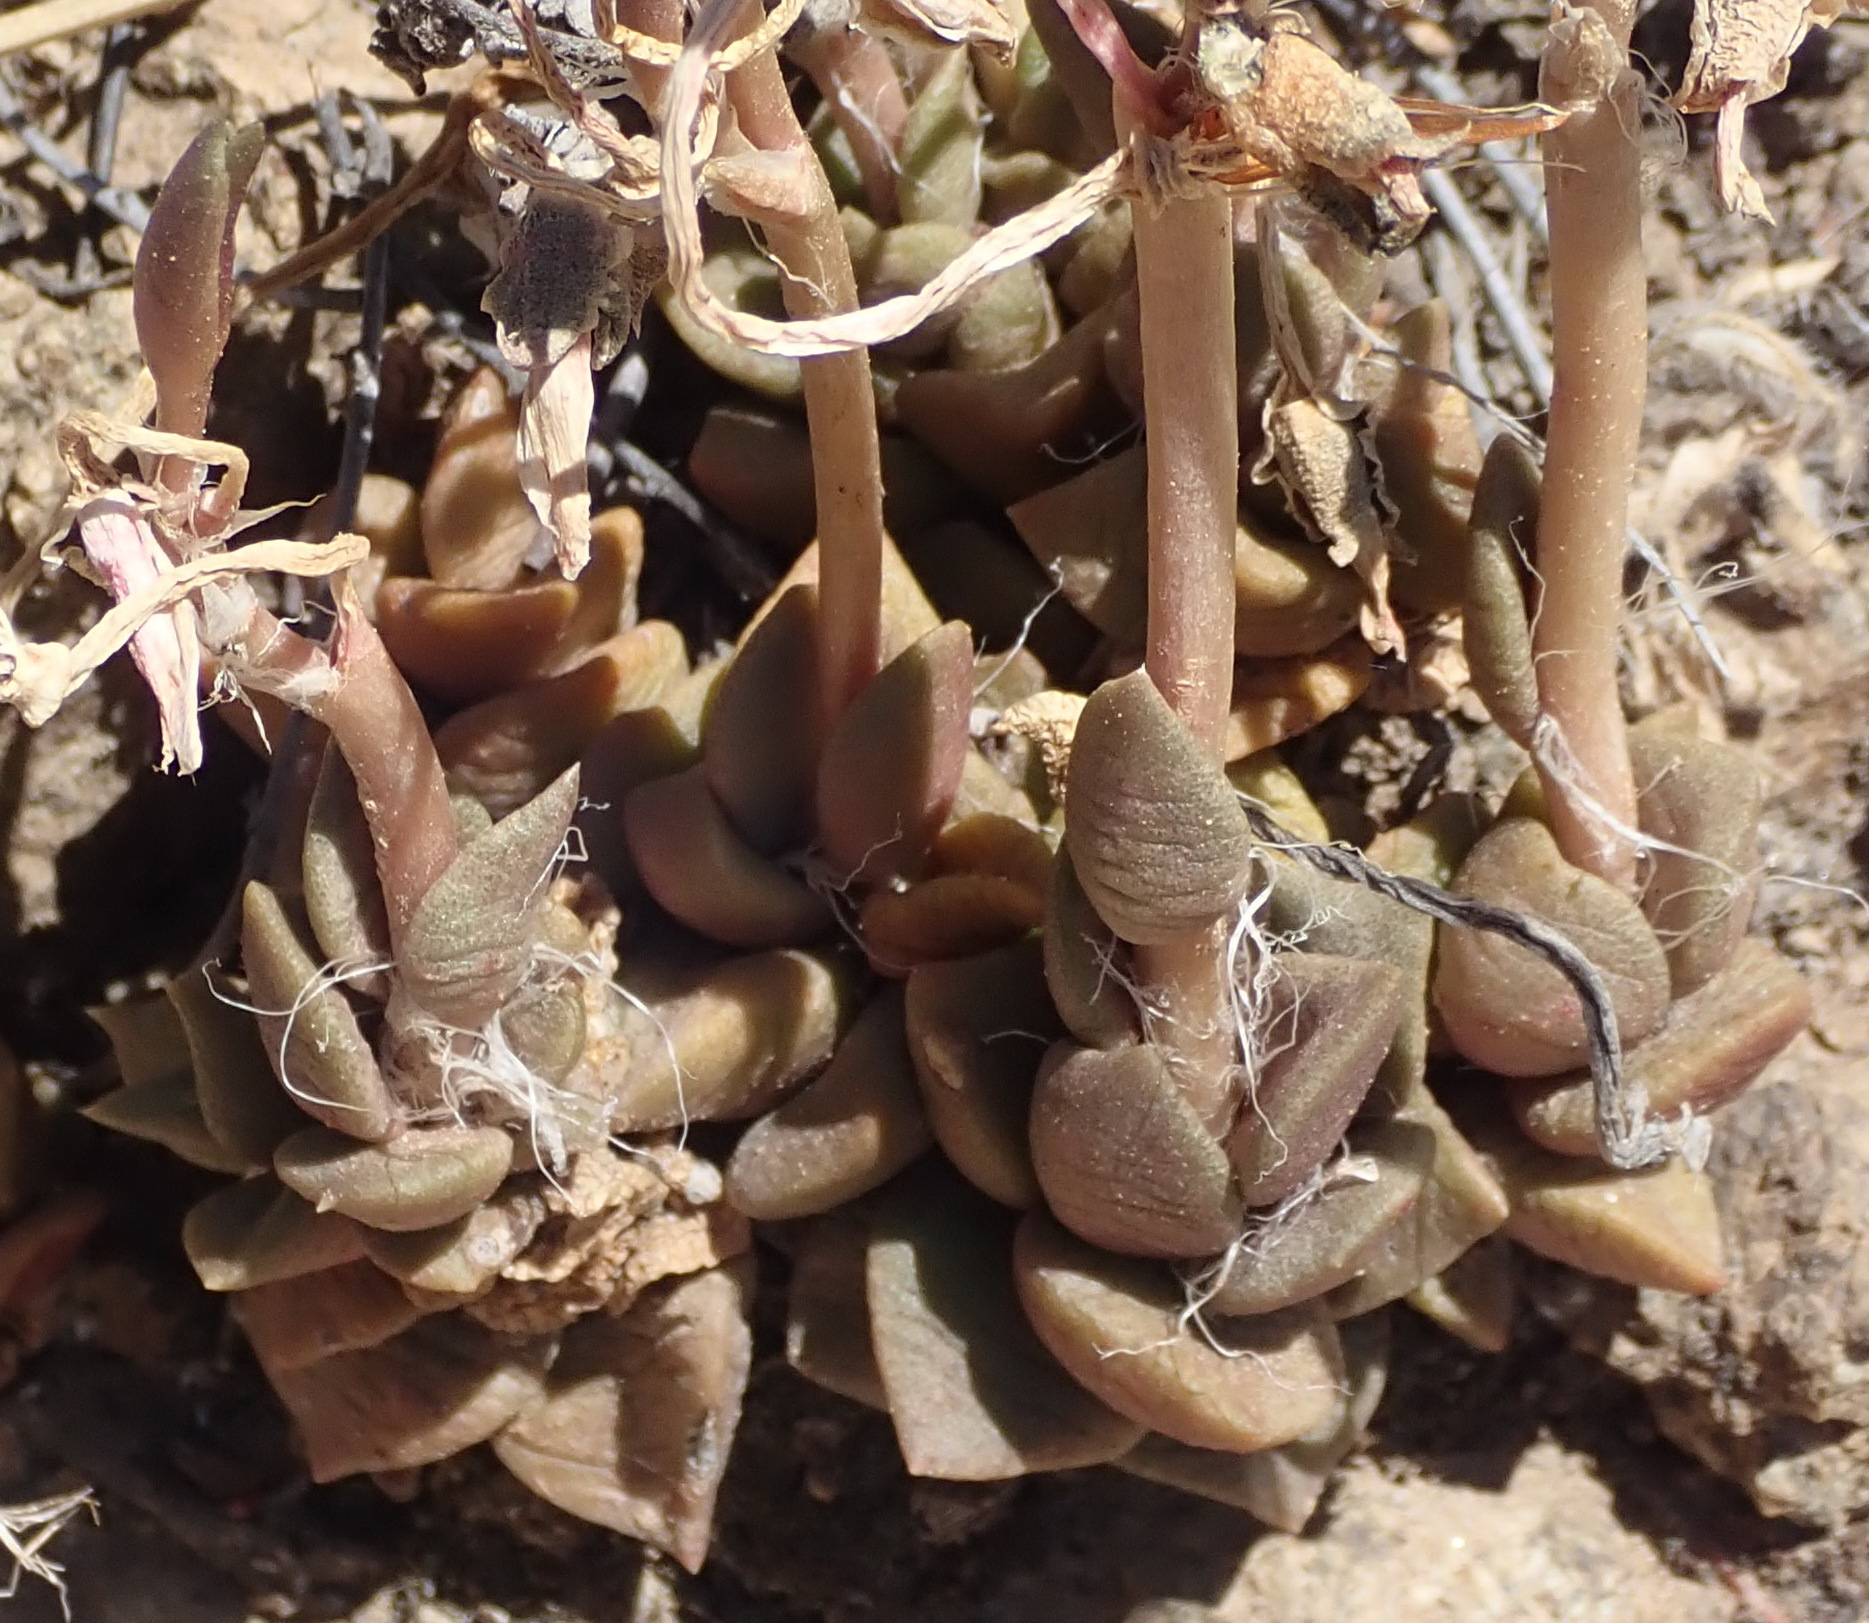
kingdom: Plantae
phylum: Tracheophyta
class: Magnoliopsida
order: Caryophyllales
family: Anacampserotaceae
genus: Anacampseros
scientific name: Anacampseros rufescens
